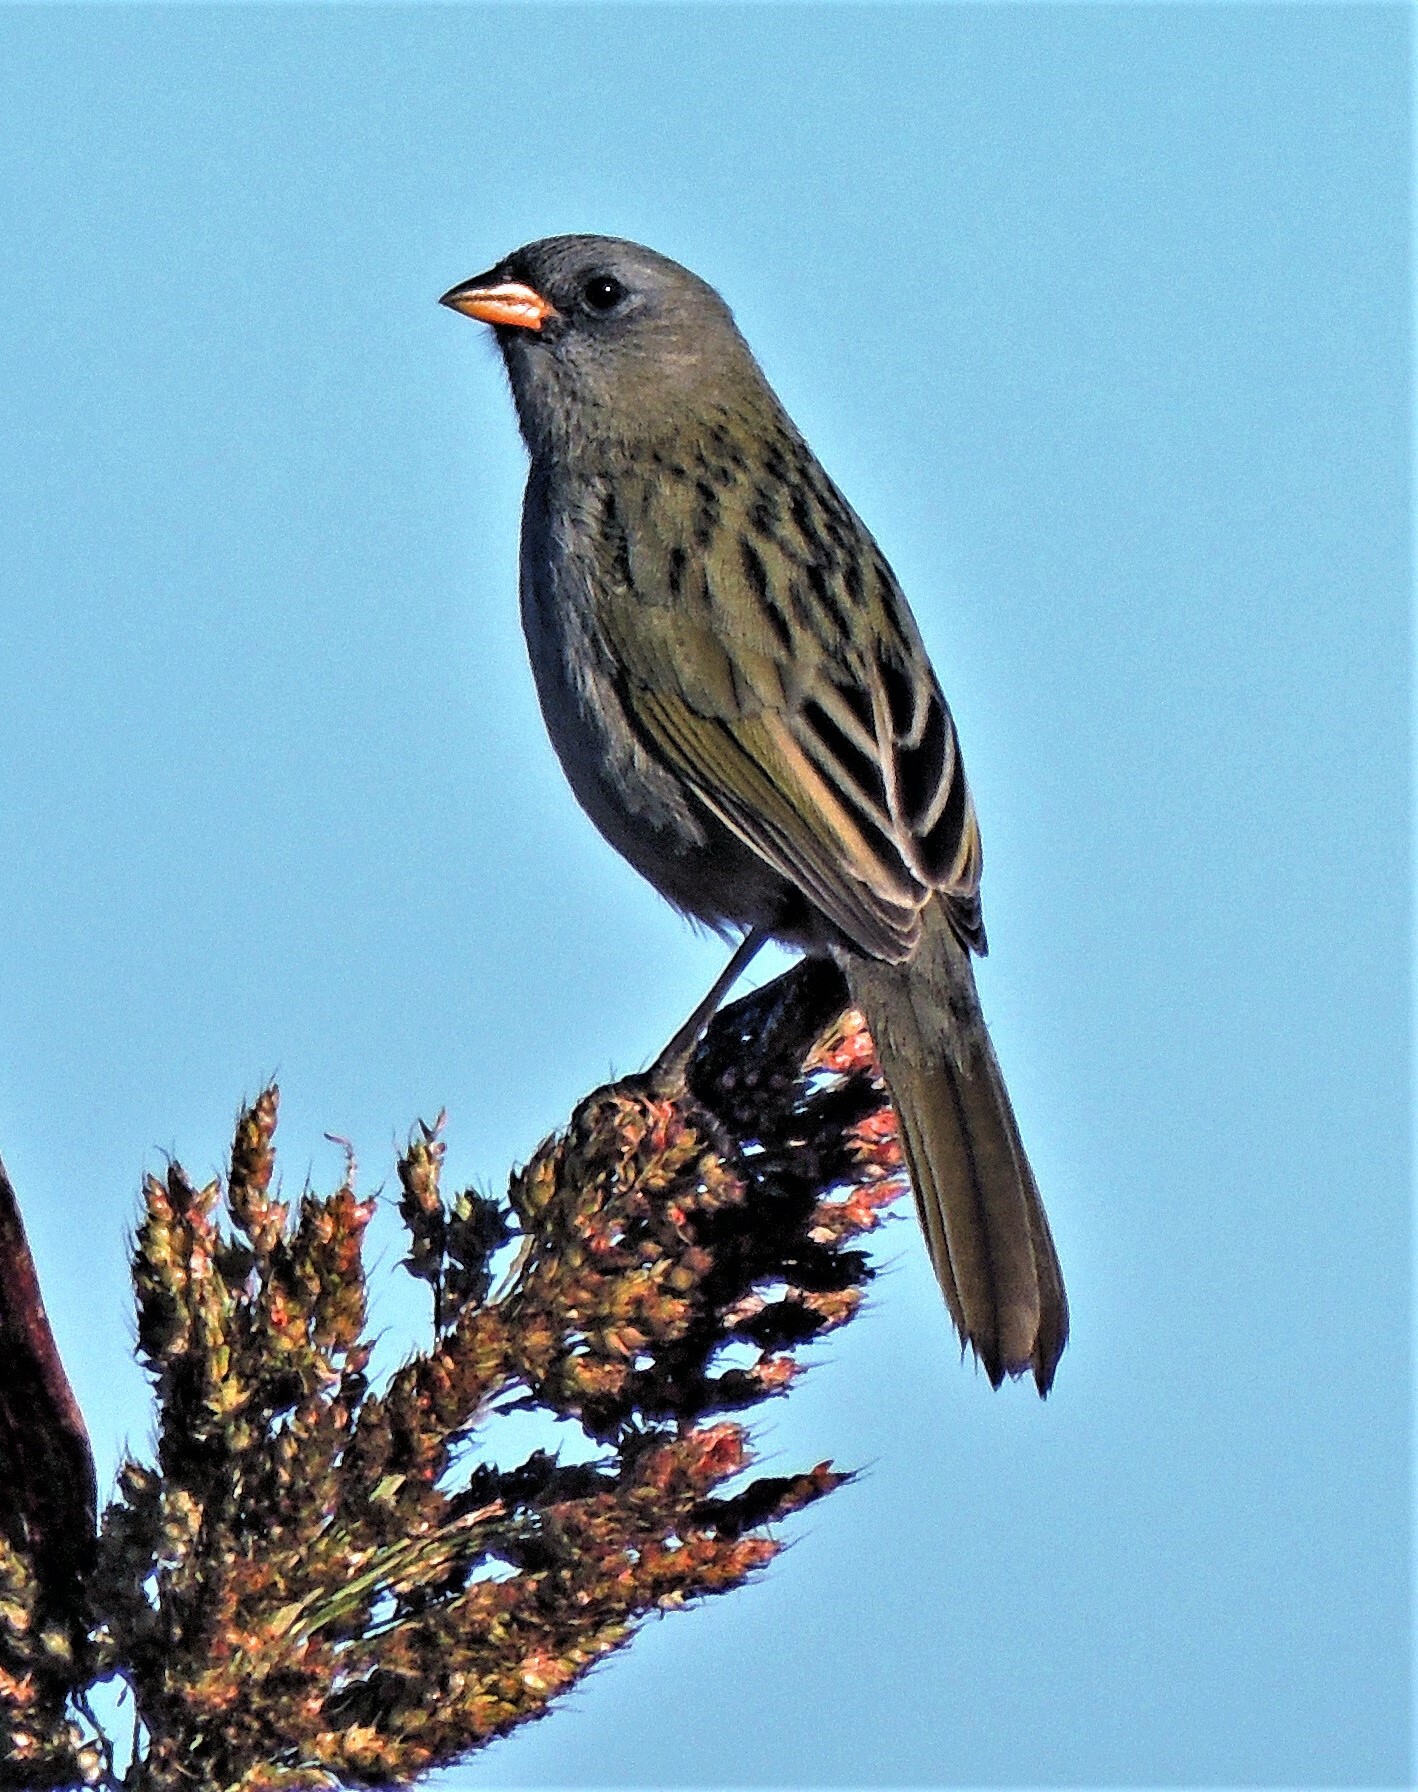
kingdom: Animalia
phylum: Chordata
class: Aves
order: Passeriformes
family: Thraupidae
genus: Embernagra
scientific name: Embernagra platensis
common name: Pampa finch
